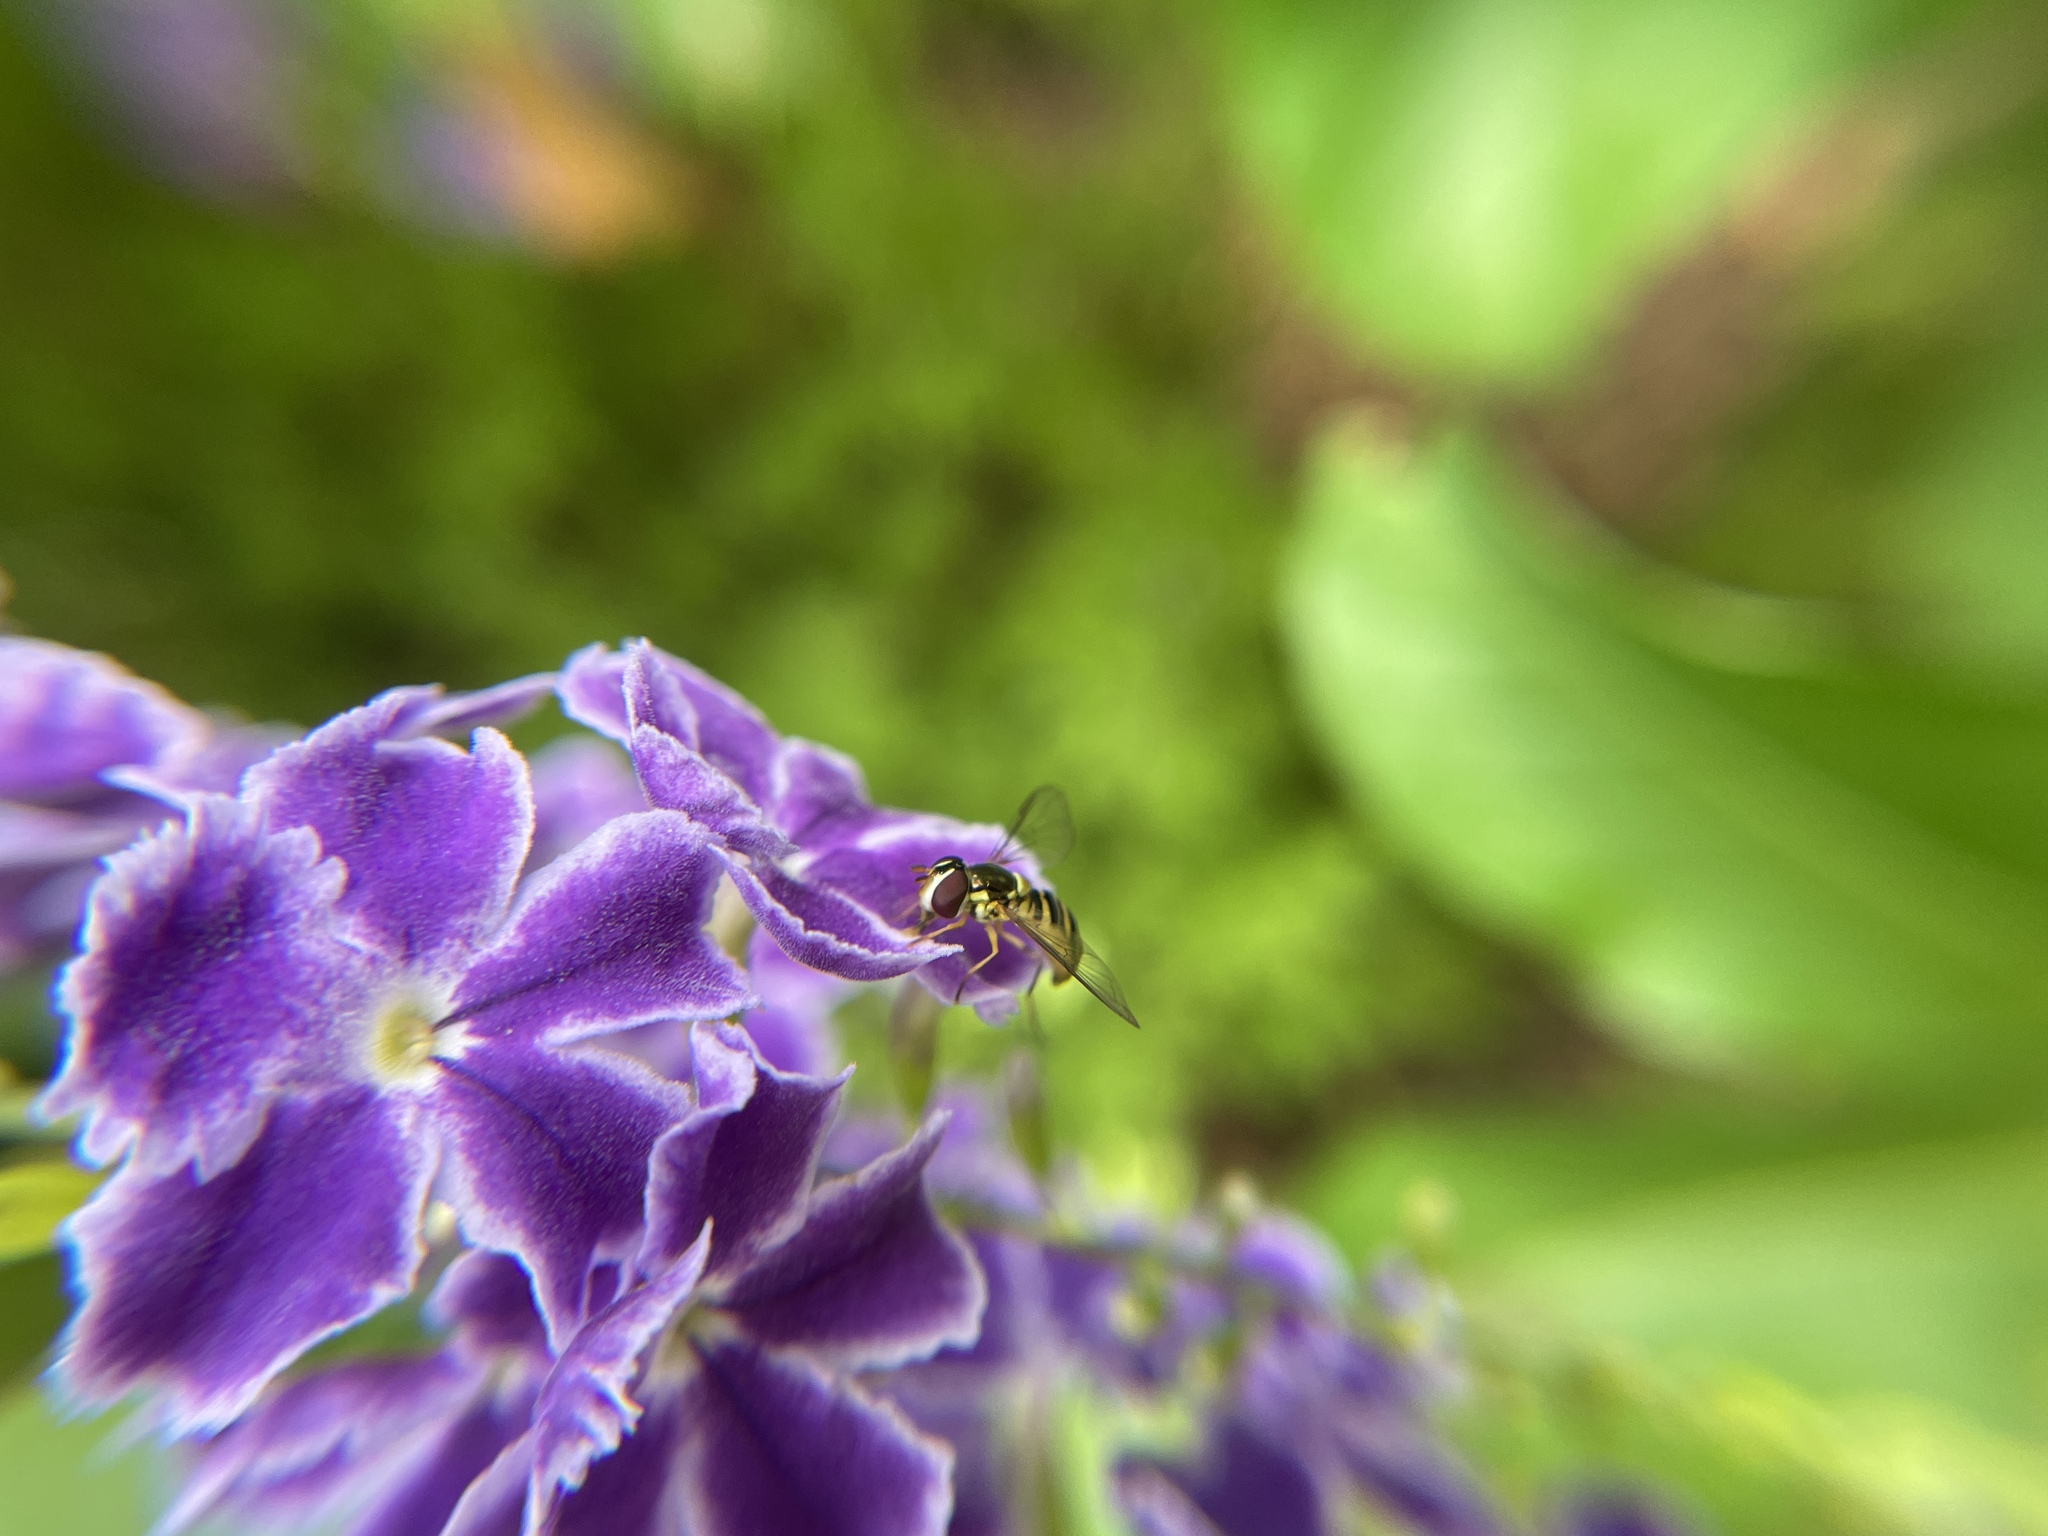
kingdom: Animalia
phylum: Arthropoda
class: Insecta
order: Diptera
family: Syrphidae
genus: Allograpta
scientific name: Allograpta obliqua
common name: Common oblique syrphid
